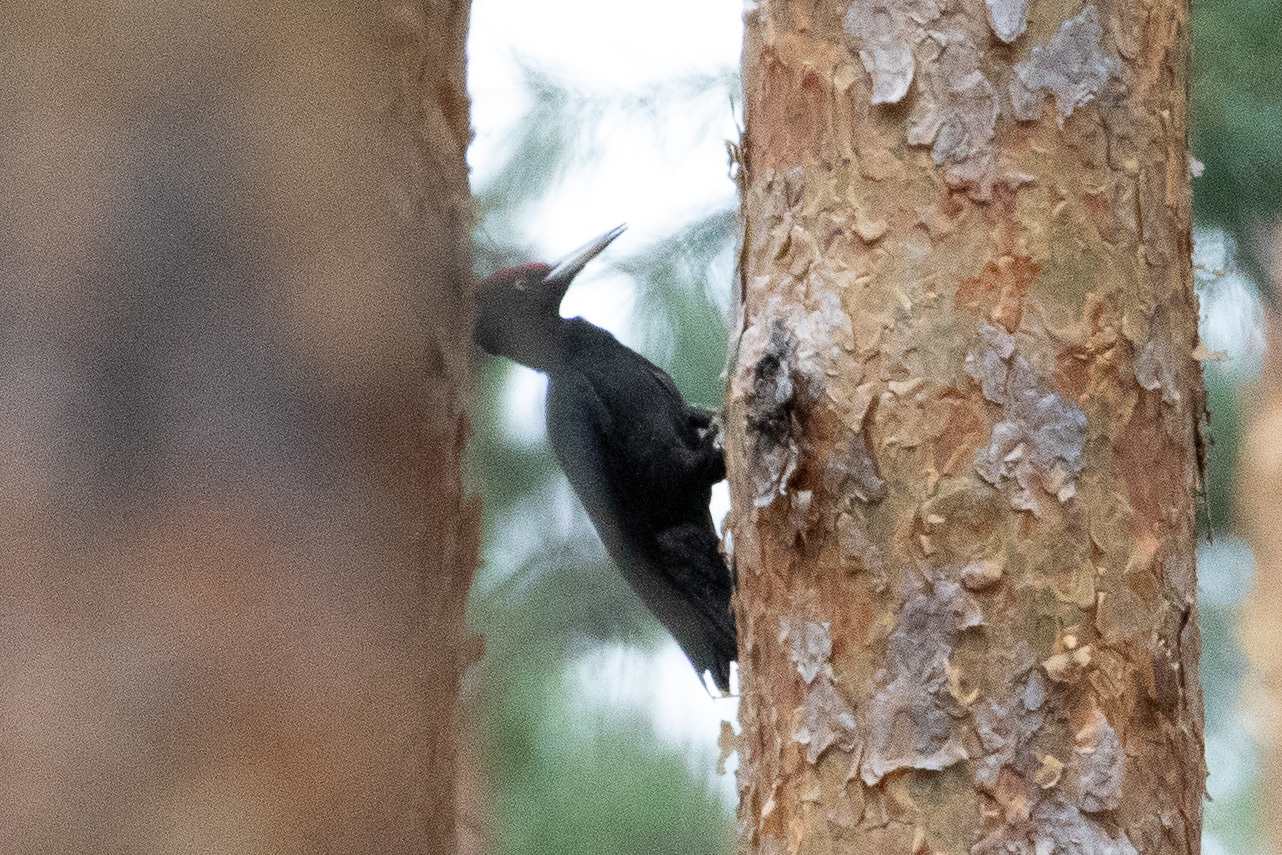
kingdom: Animalia
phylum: Chordata
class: Aves
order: Piciformes
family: Picidae
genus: Dryocopus
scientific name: Dryocopus martius
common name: Black woodpecker
